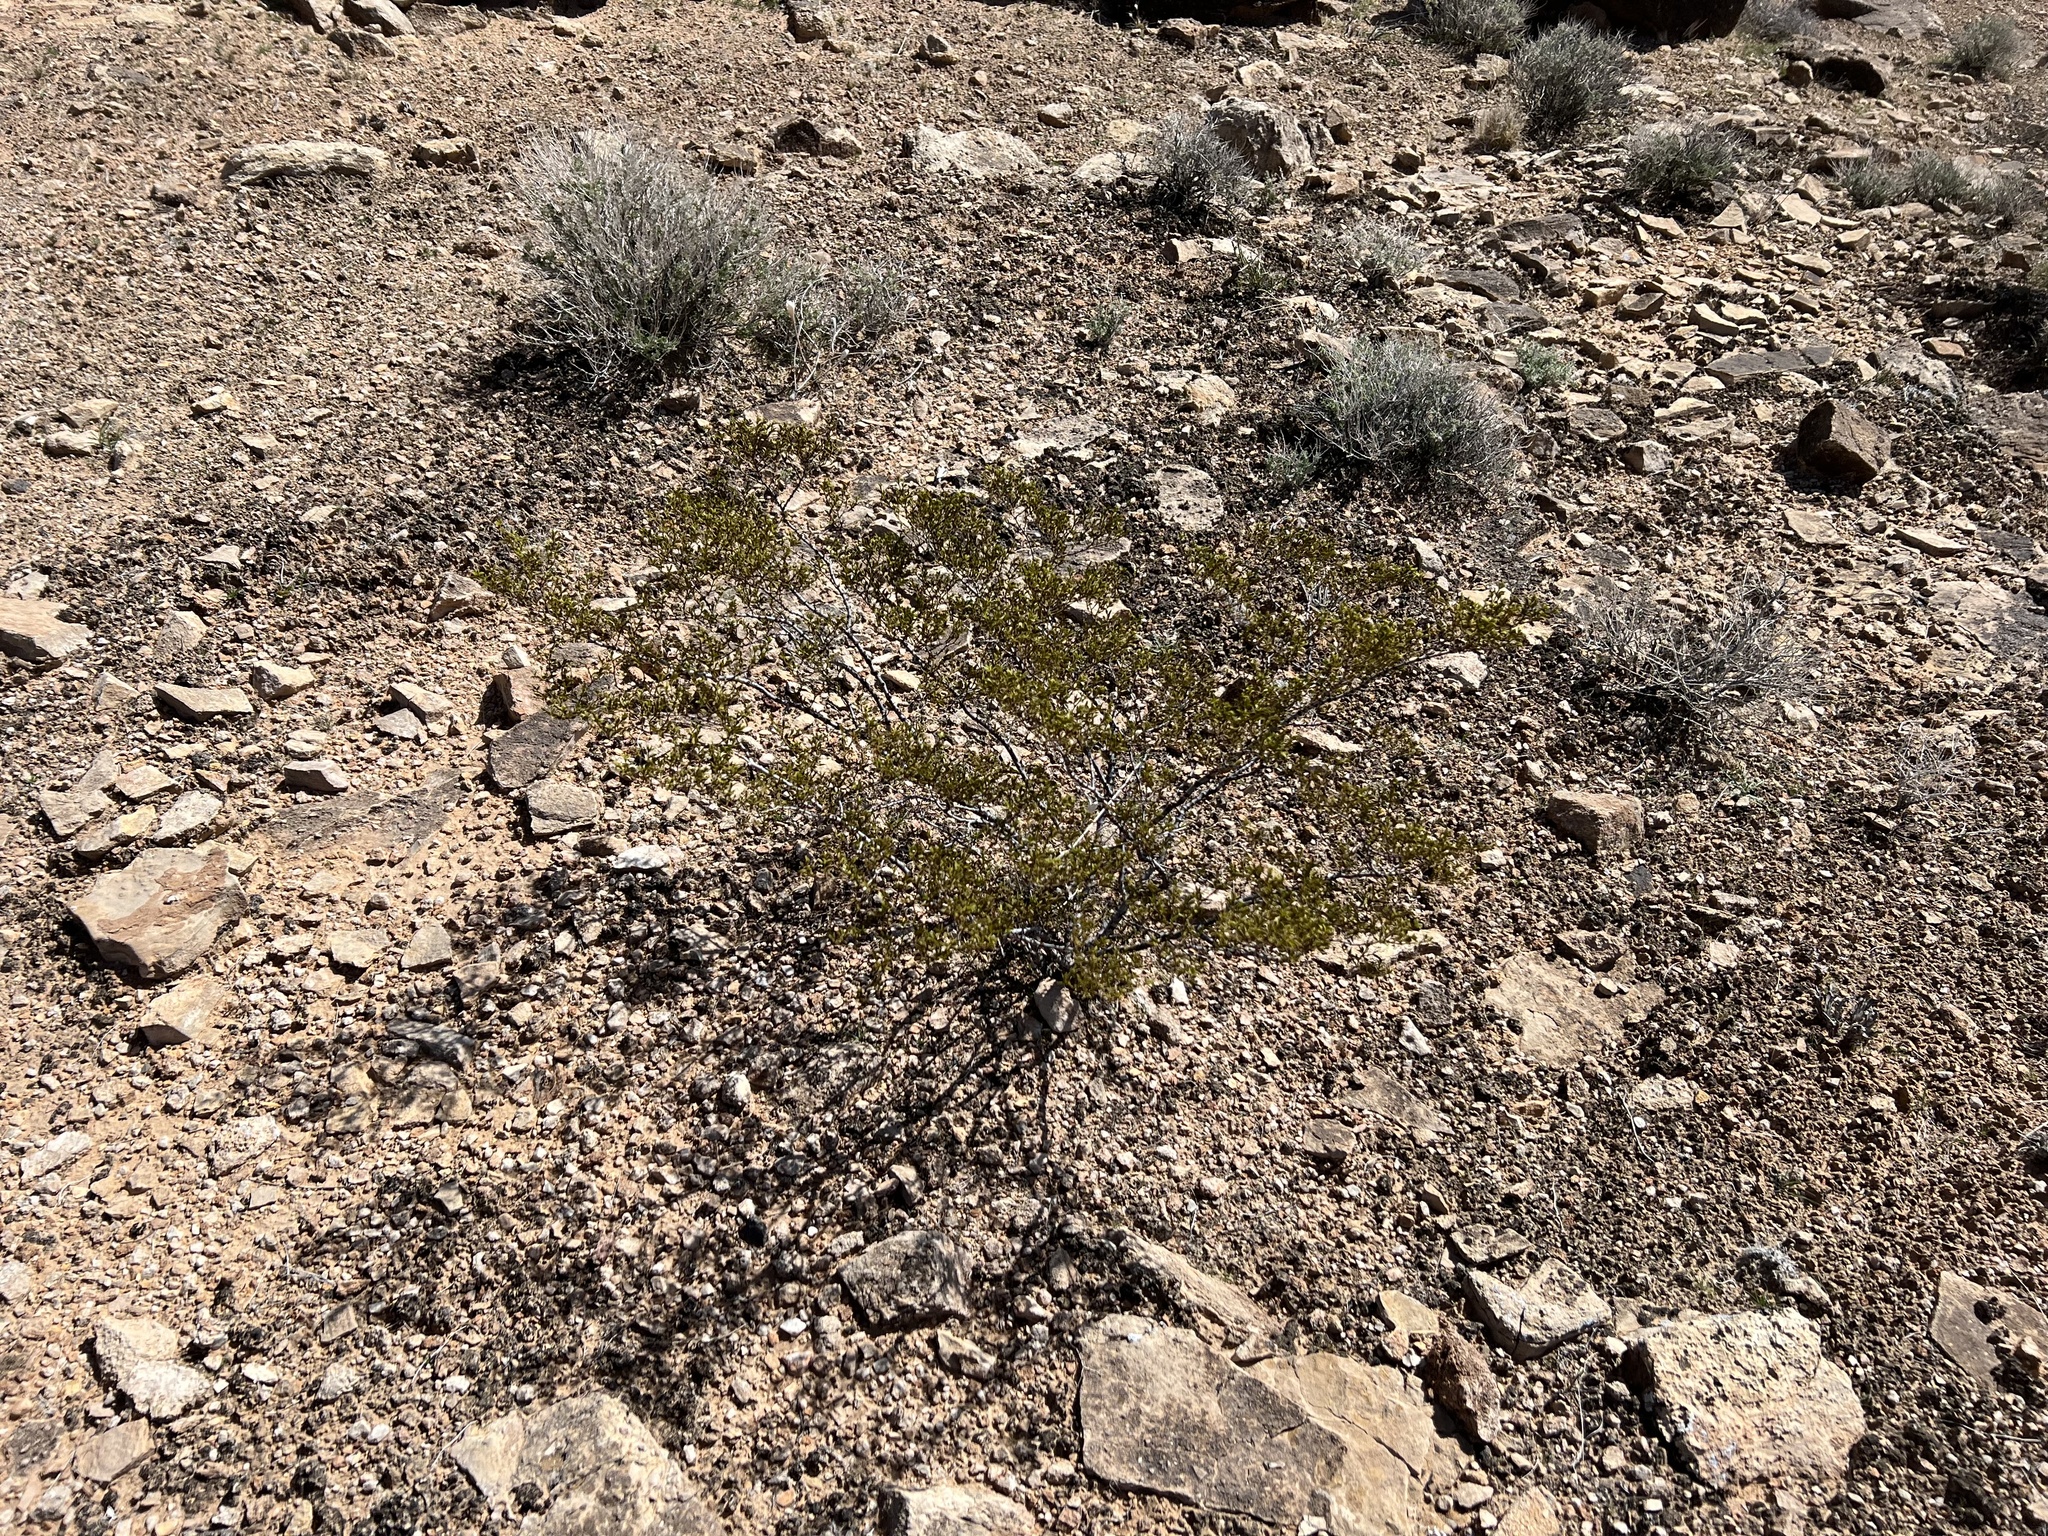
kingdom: Plantae
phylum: Tracheophyta
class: Magnoliopsida
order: Zygophyllales
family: Zygophyllaceae
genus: Larrea
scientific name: Larrea tridentata
